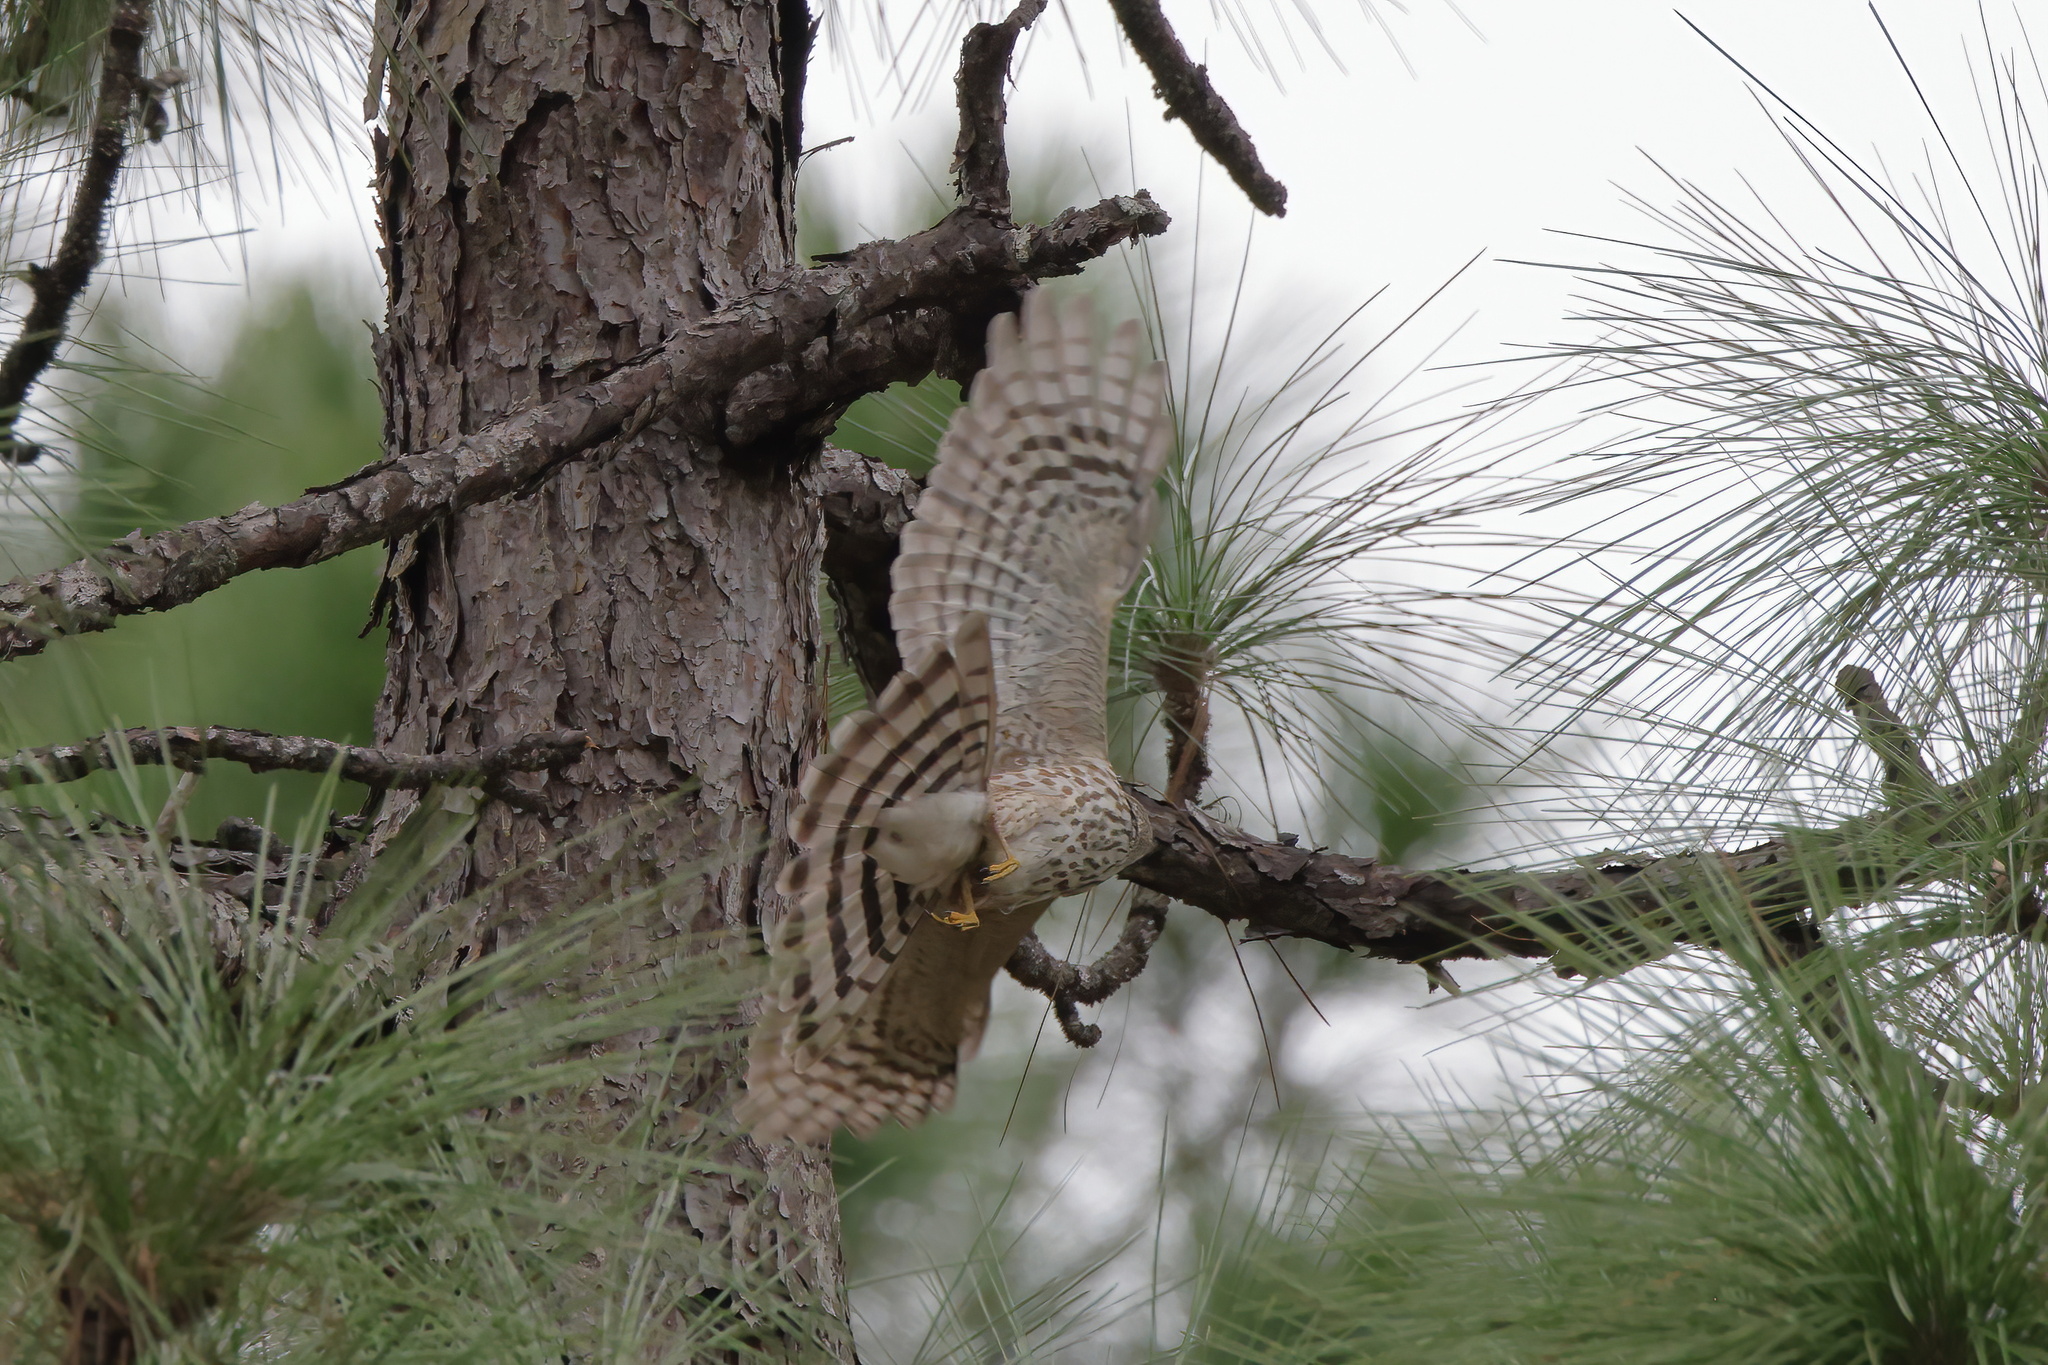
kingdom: Animalia
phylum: Chordata
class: Aves
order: Accipitriformes
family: Accipitridae
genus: Accipiter
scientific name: Accipiter striatus
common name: Sharp-shinned hawk
